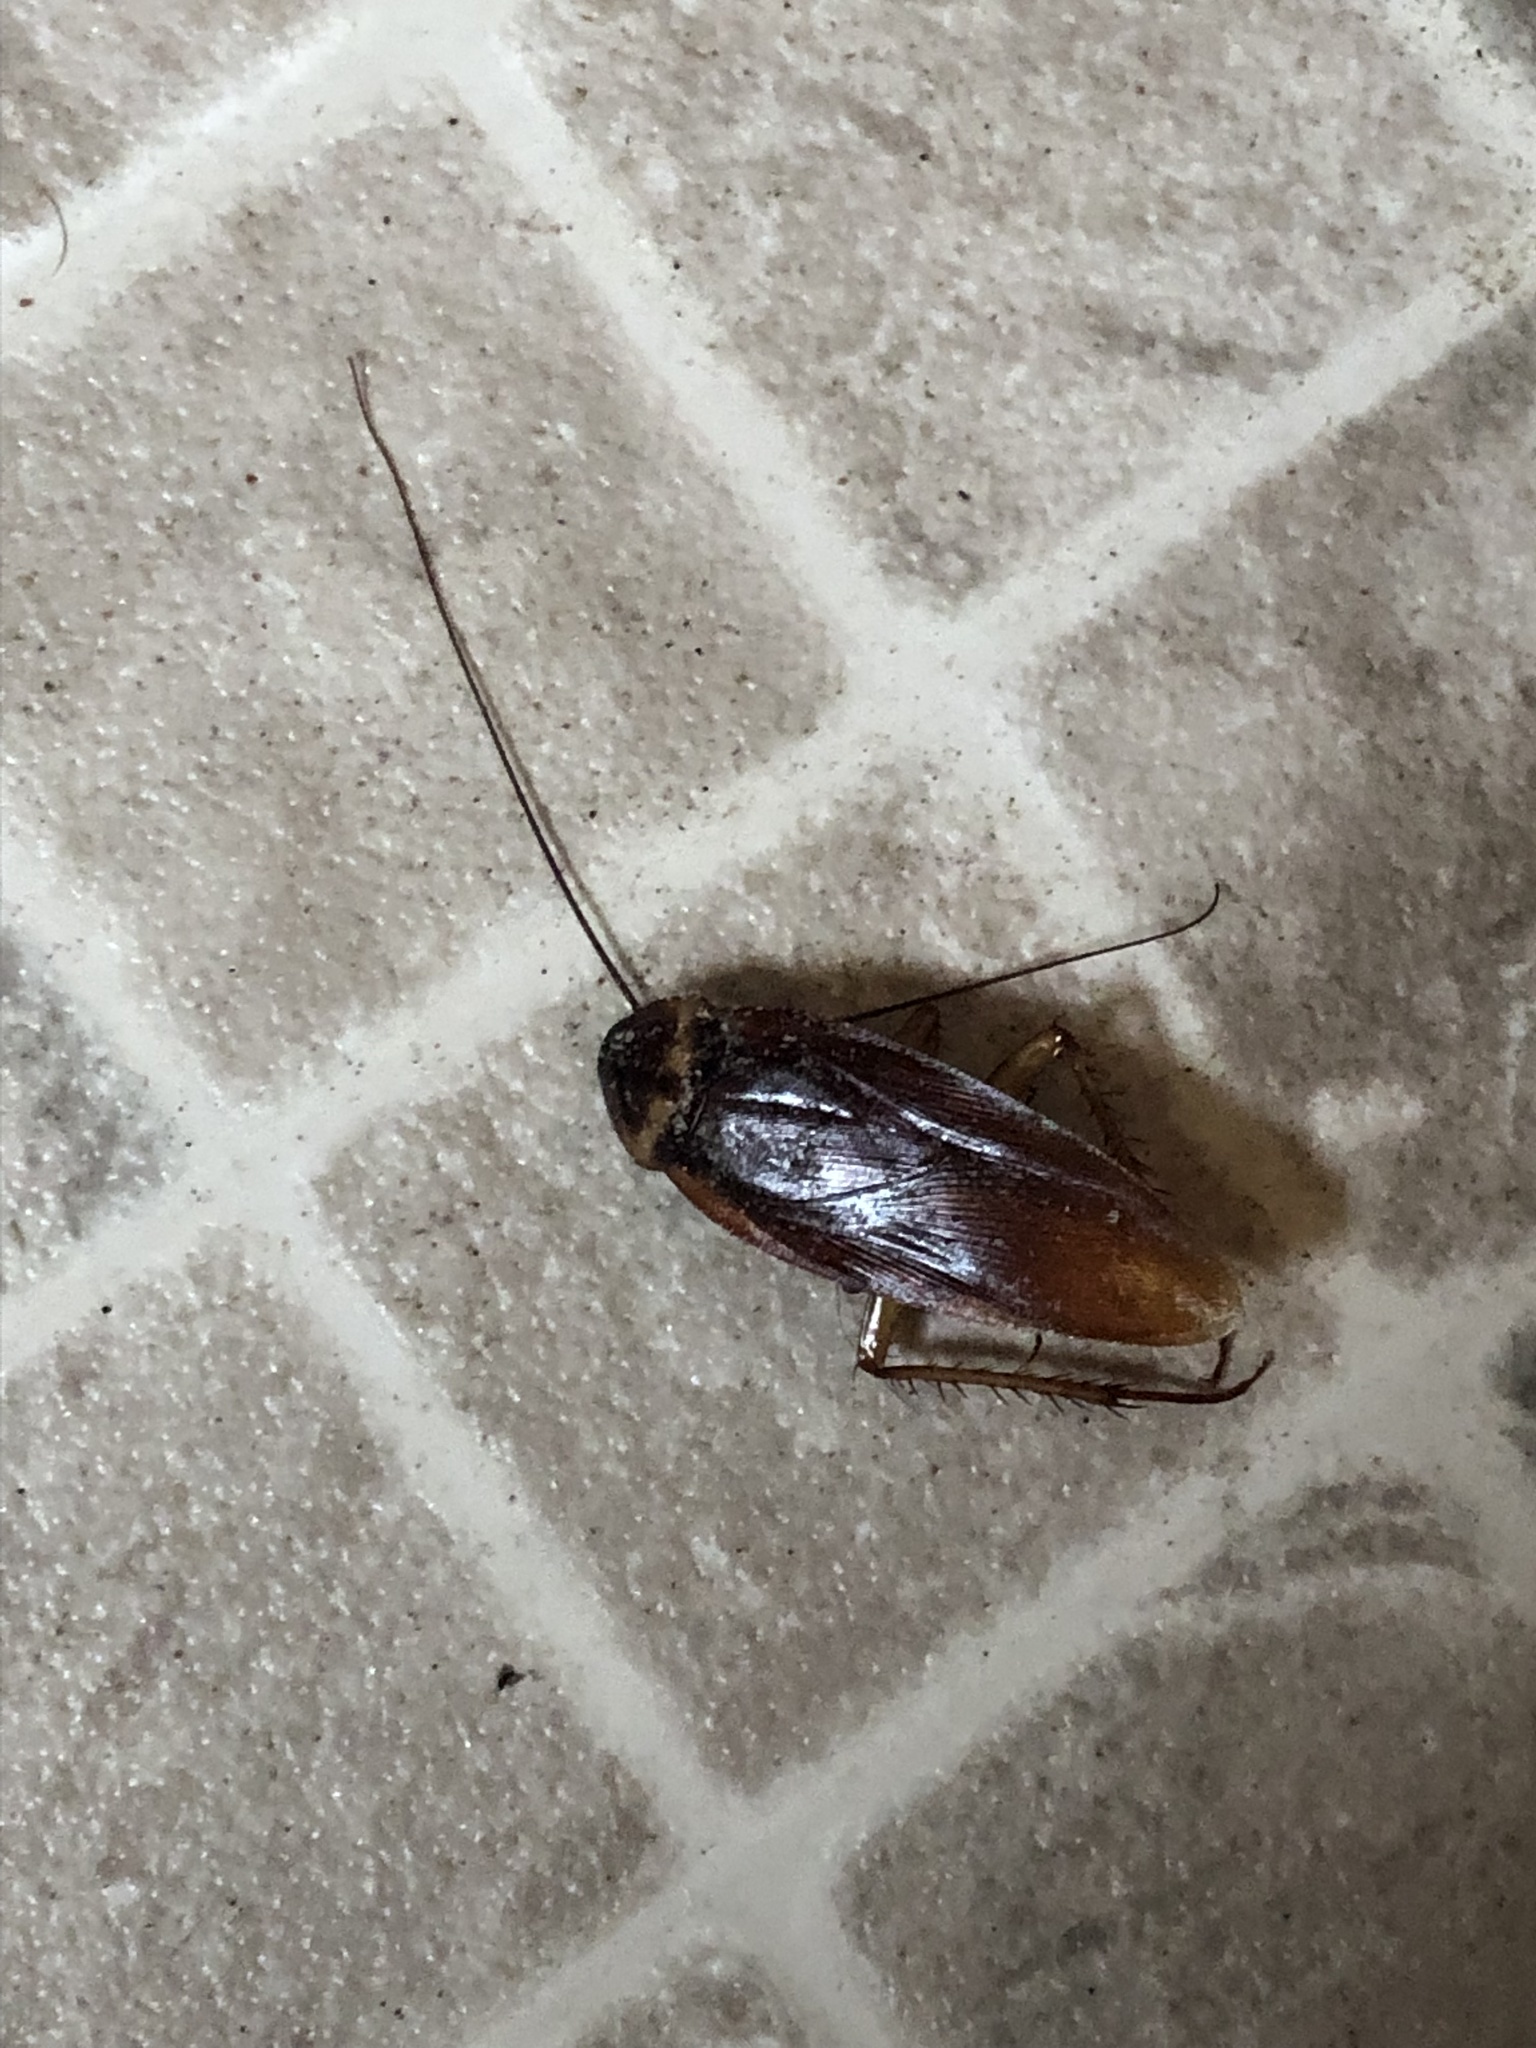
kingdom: Animalia
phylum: Arthropoda
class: Insecta
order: Blattodea
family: Blattidae
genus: Periplaneta
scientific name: Periplaneta americana
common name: American cockroach
